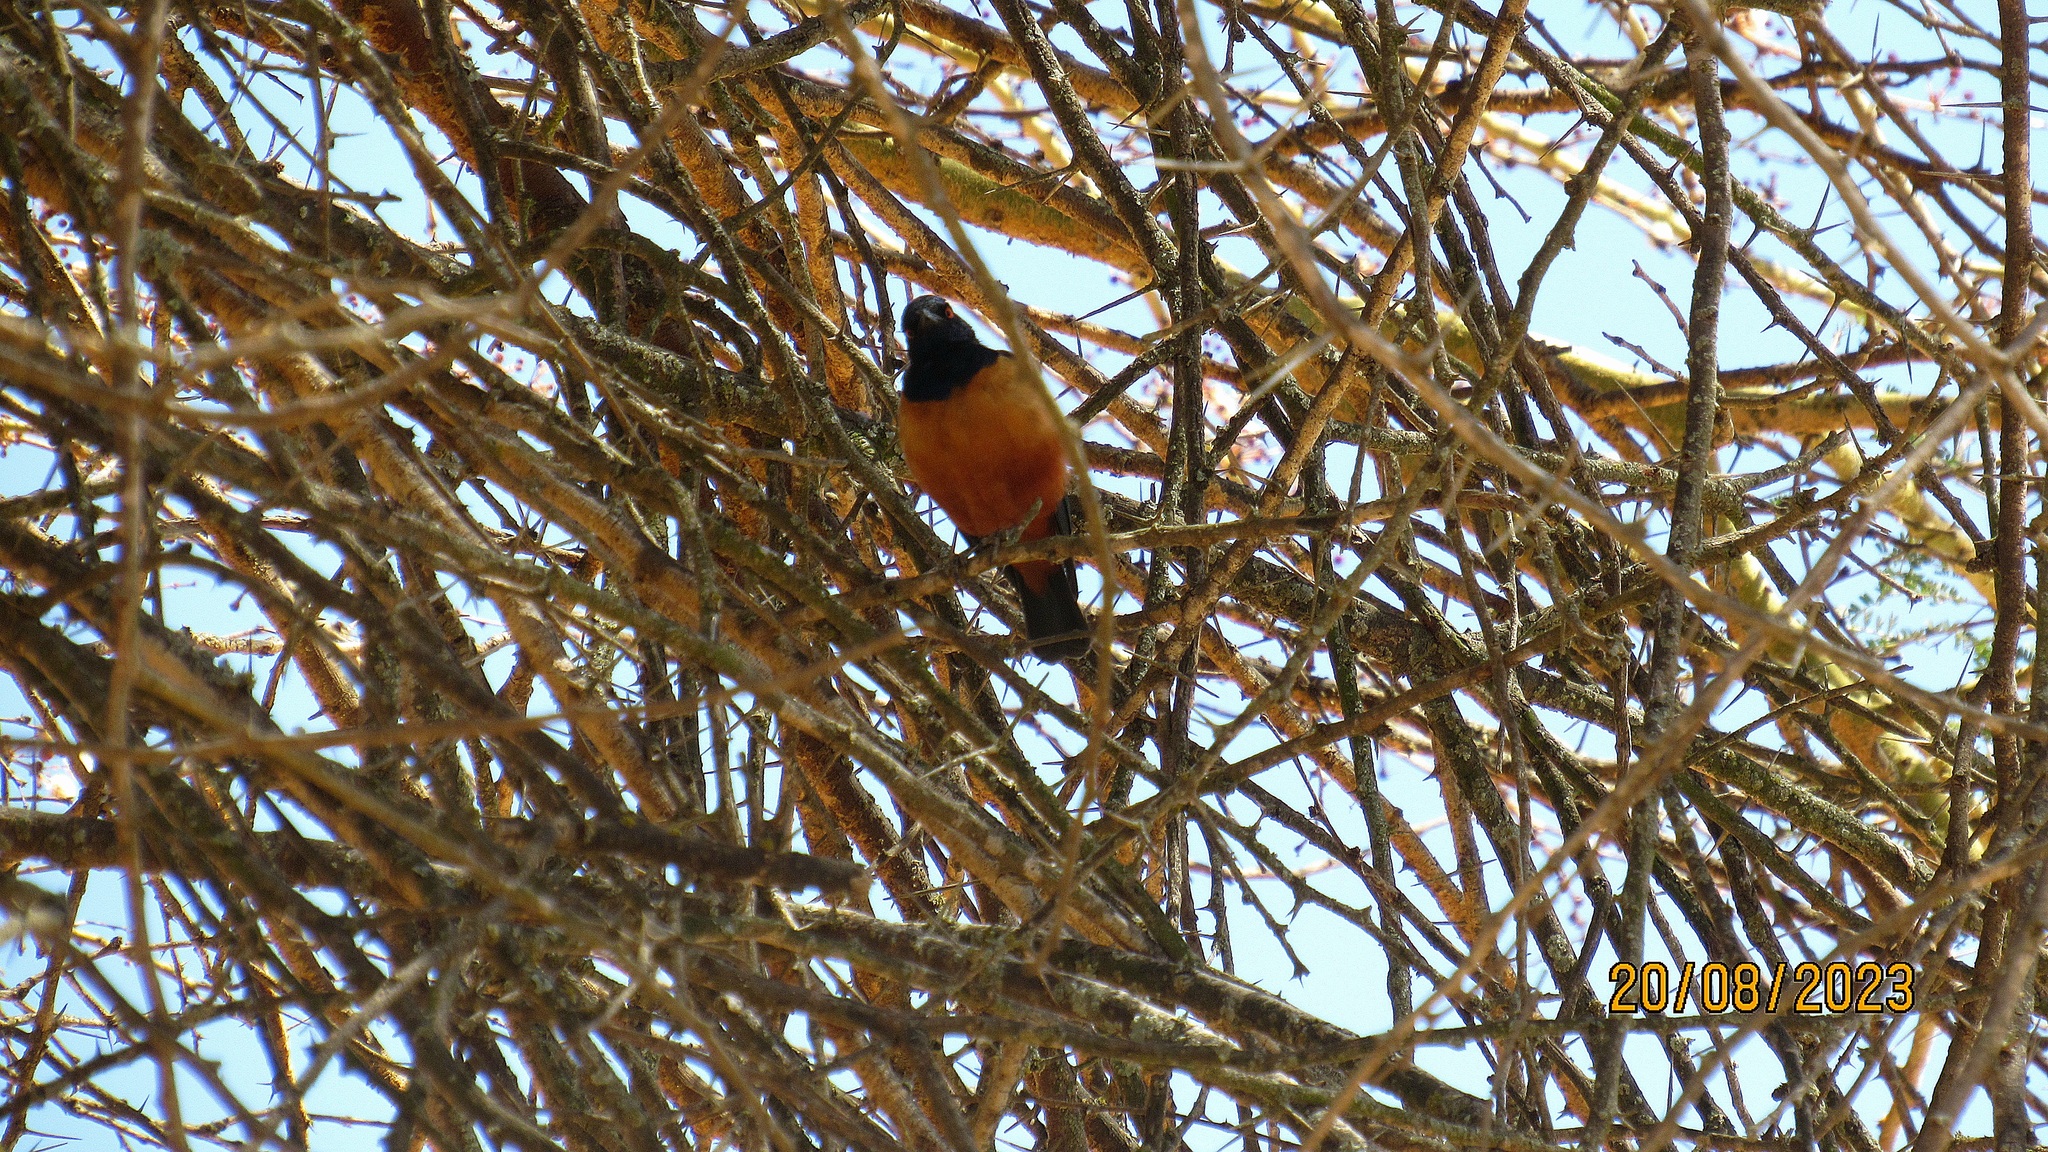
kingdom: Animalia
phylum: Chordata
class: Aves
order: Passeriformes
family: Sturnidae
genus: Lamprotornis
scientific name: Lamprotornis hildebrandti
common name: Hildebrandt's starling
